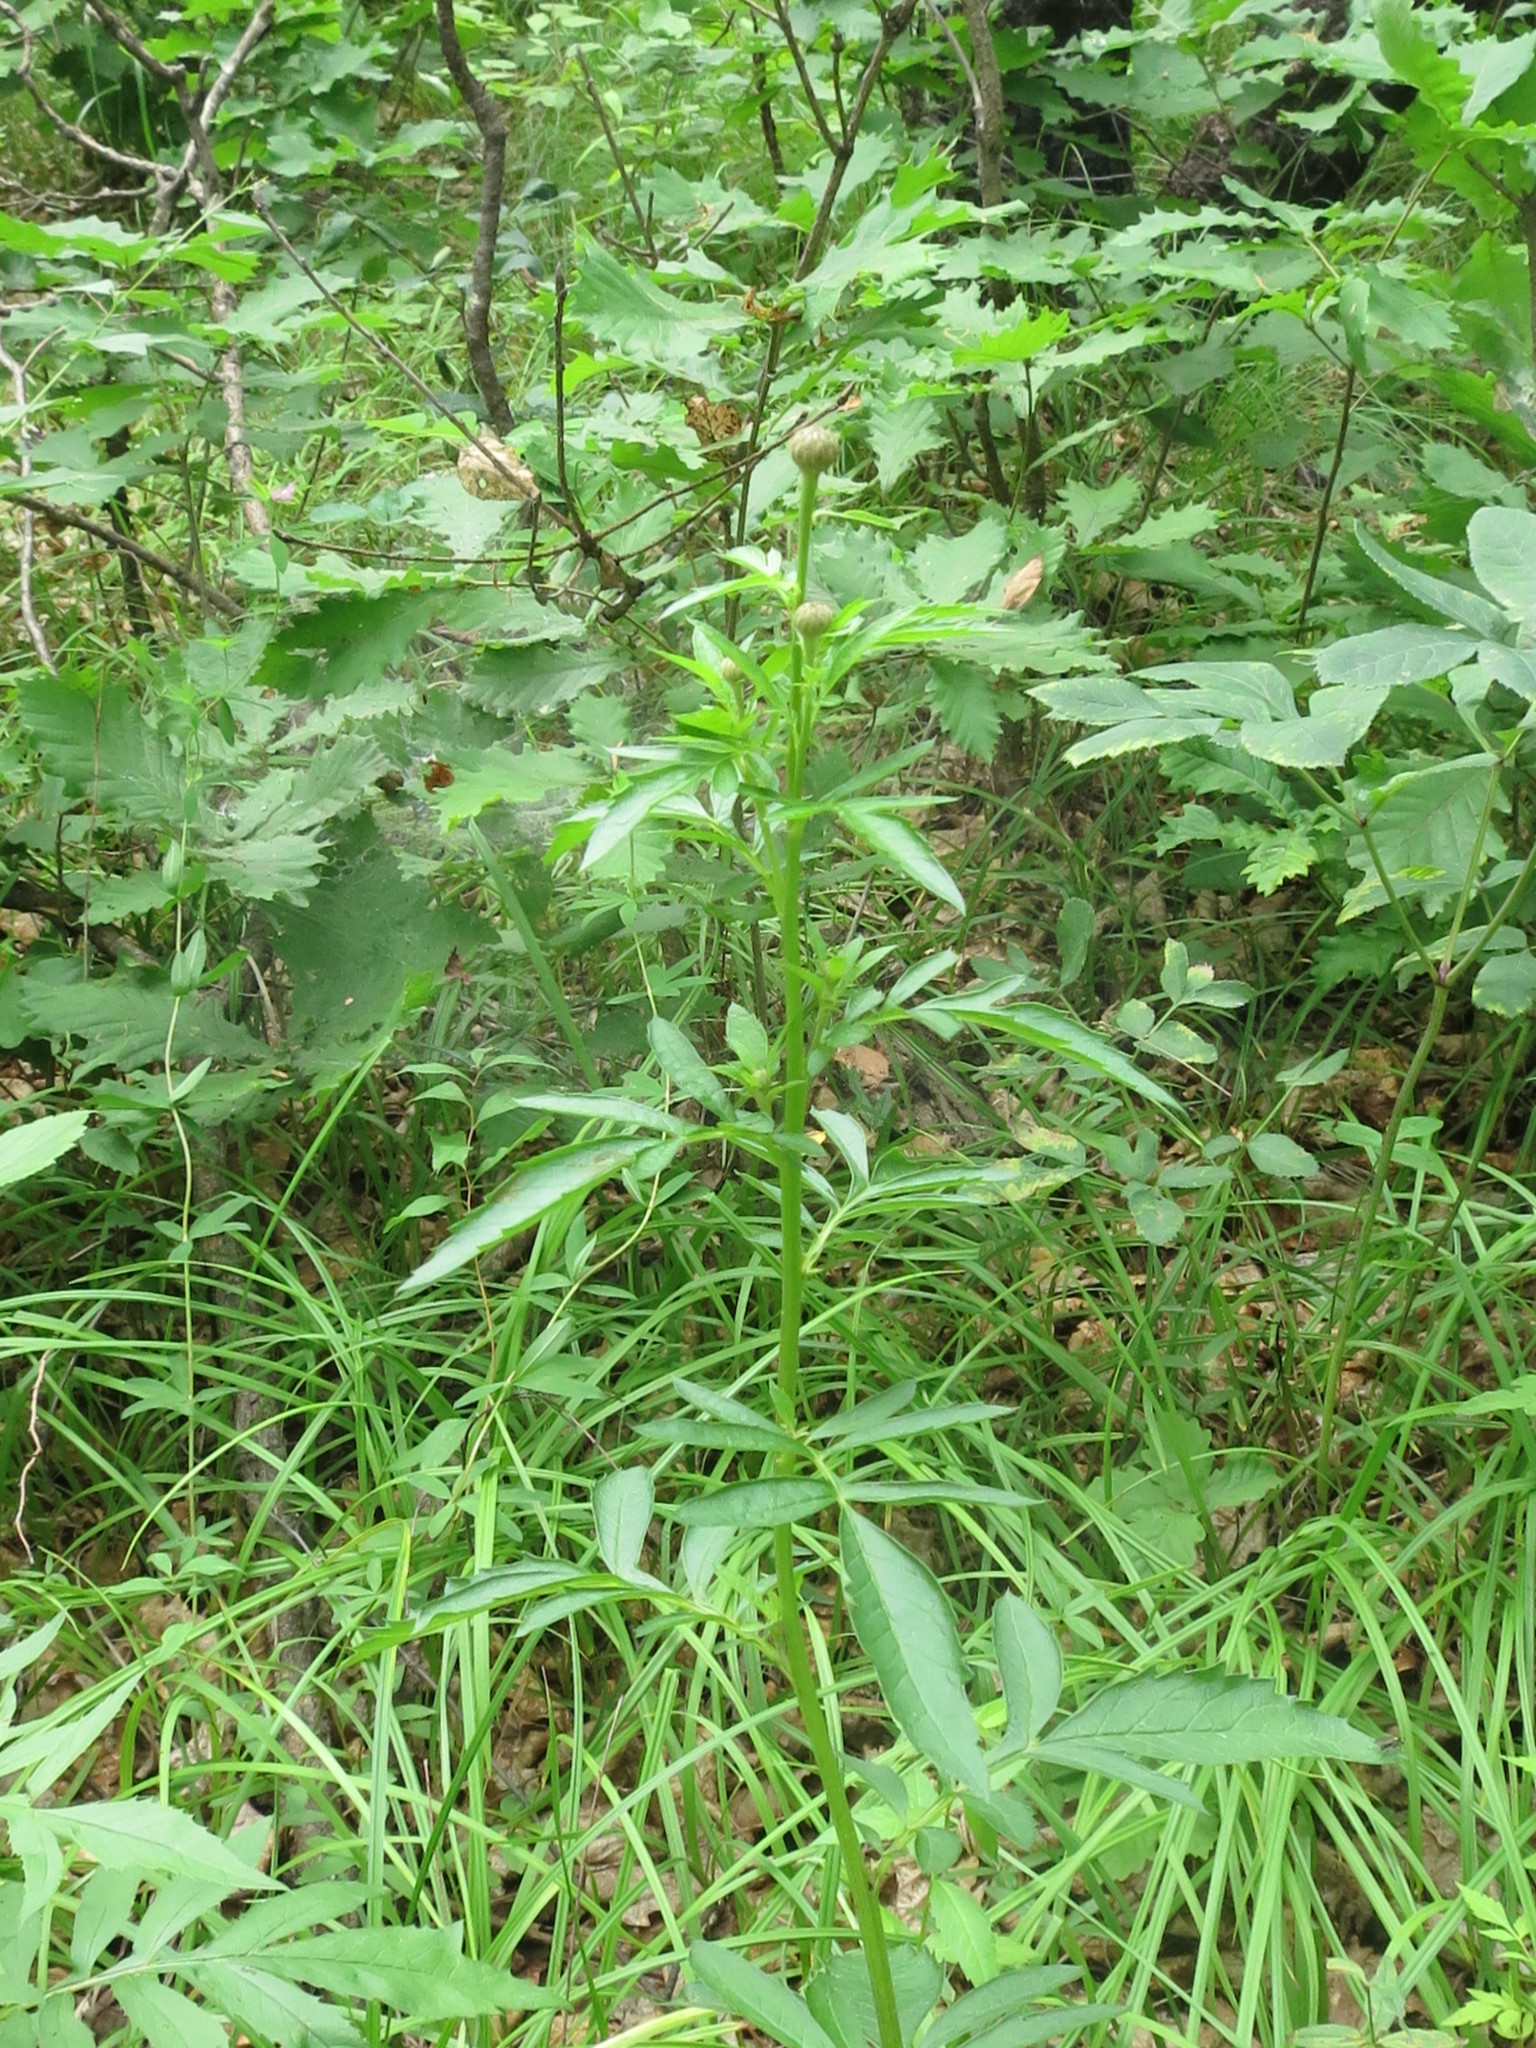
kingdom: Plantae
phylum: Tracheophyta
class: Magnoliopsida
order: Asterales
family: Asteraceae
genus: Serratula
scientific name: Serratula coronata
